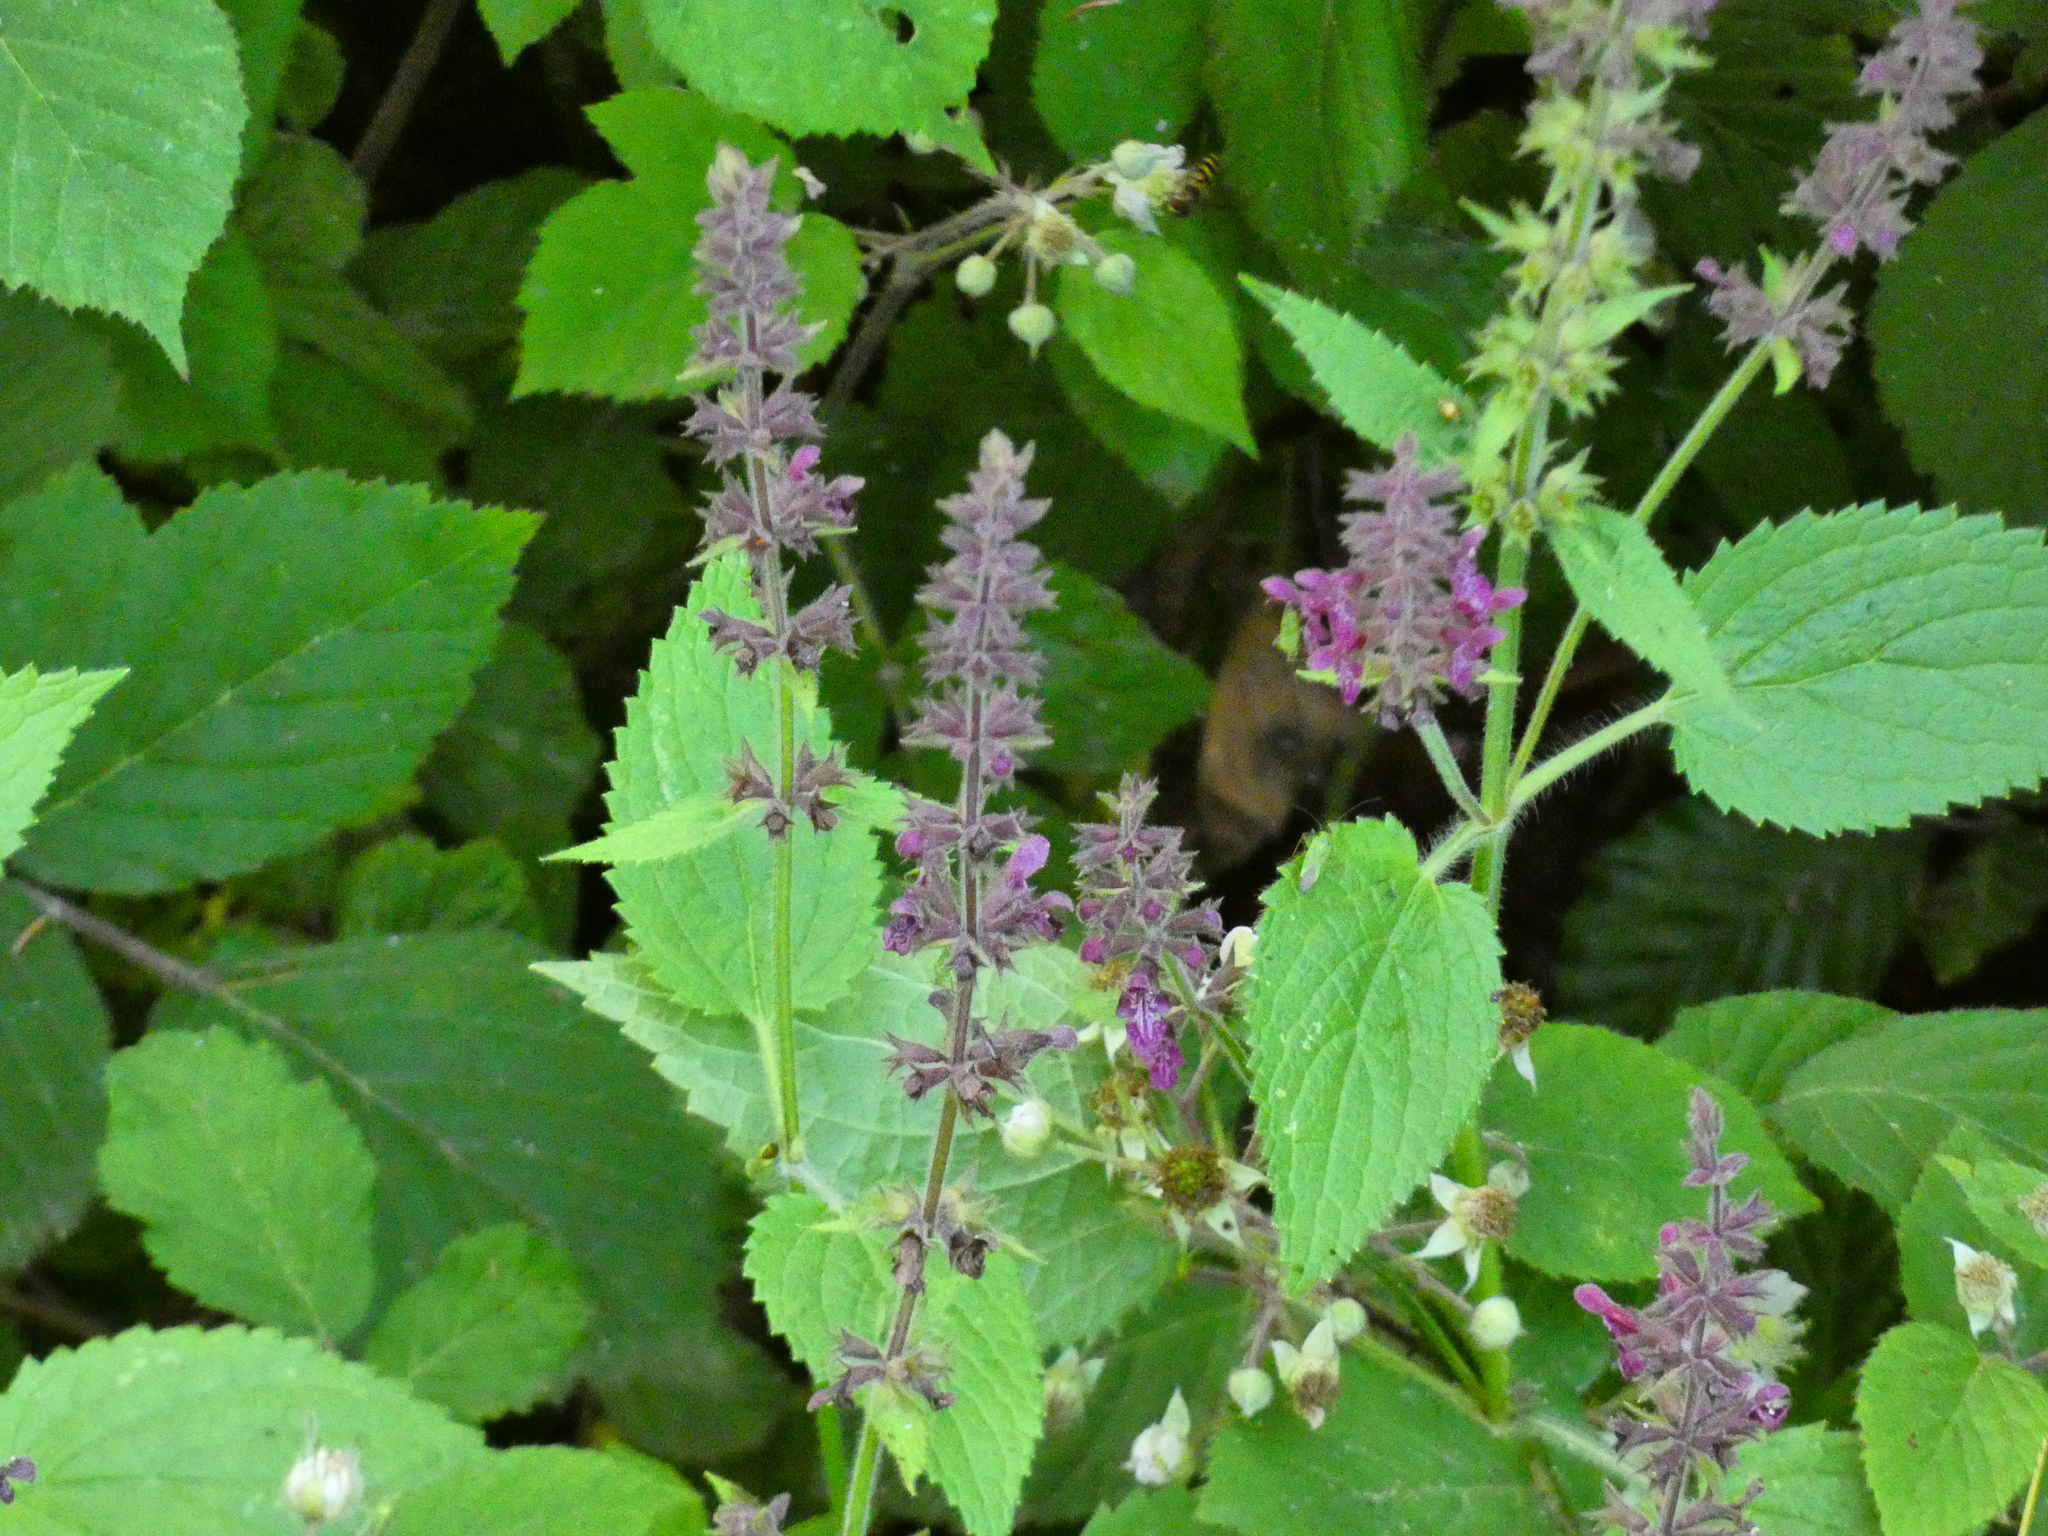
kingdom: Plantae
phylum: Tracheophyta
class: Magnoliopsida
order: Lamiales
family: Lamiaceae
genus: Stachys
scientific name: Stachys sylvatica
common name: Hedge woundwort
